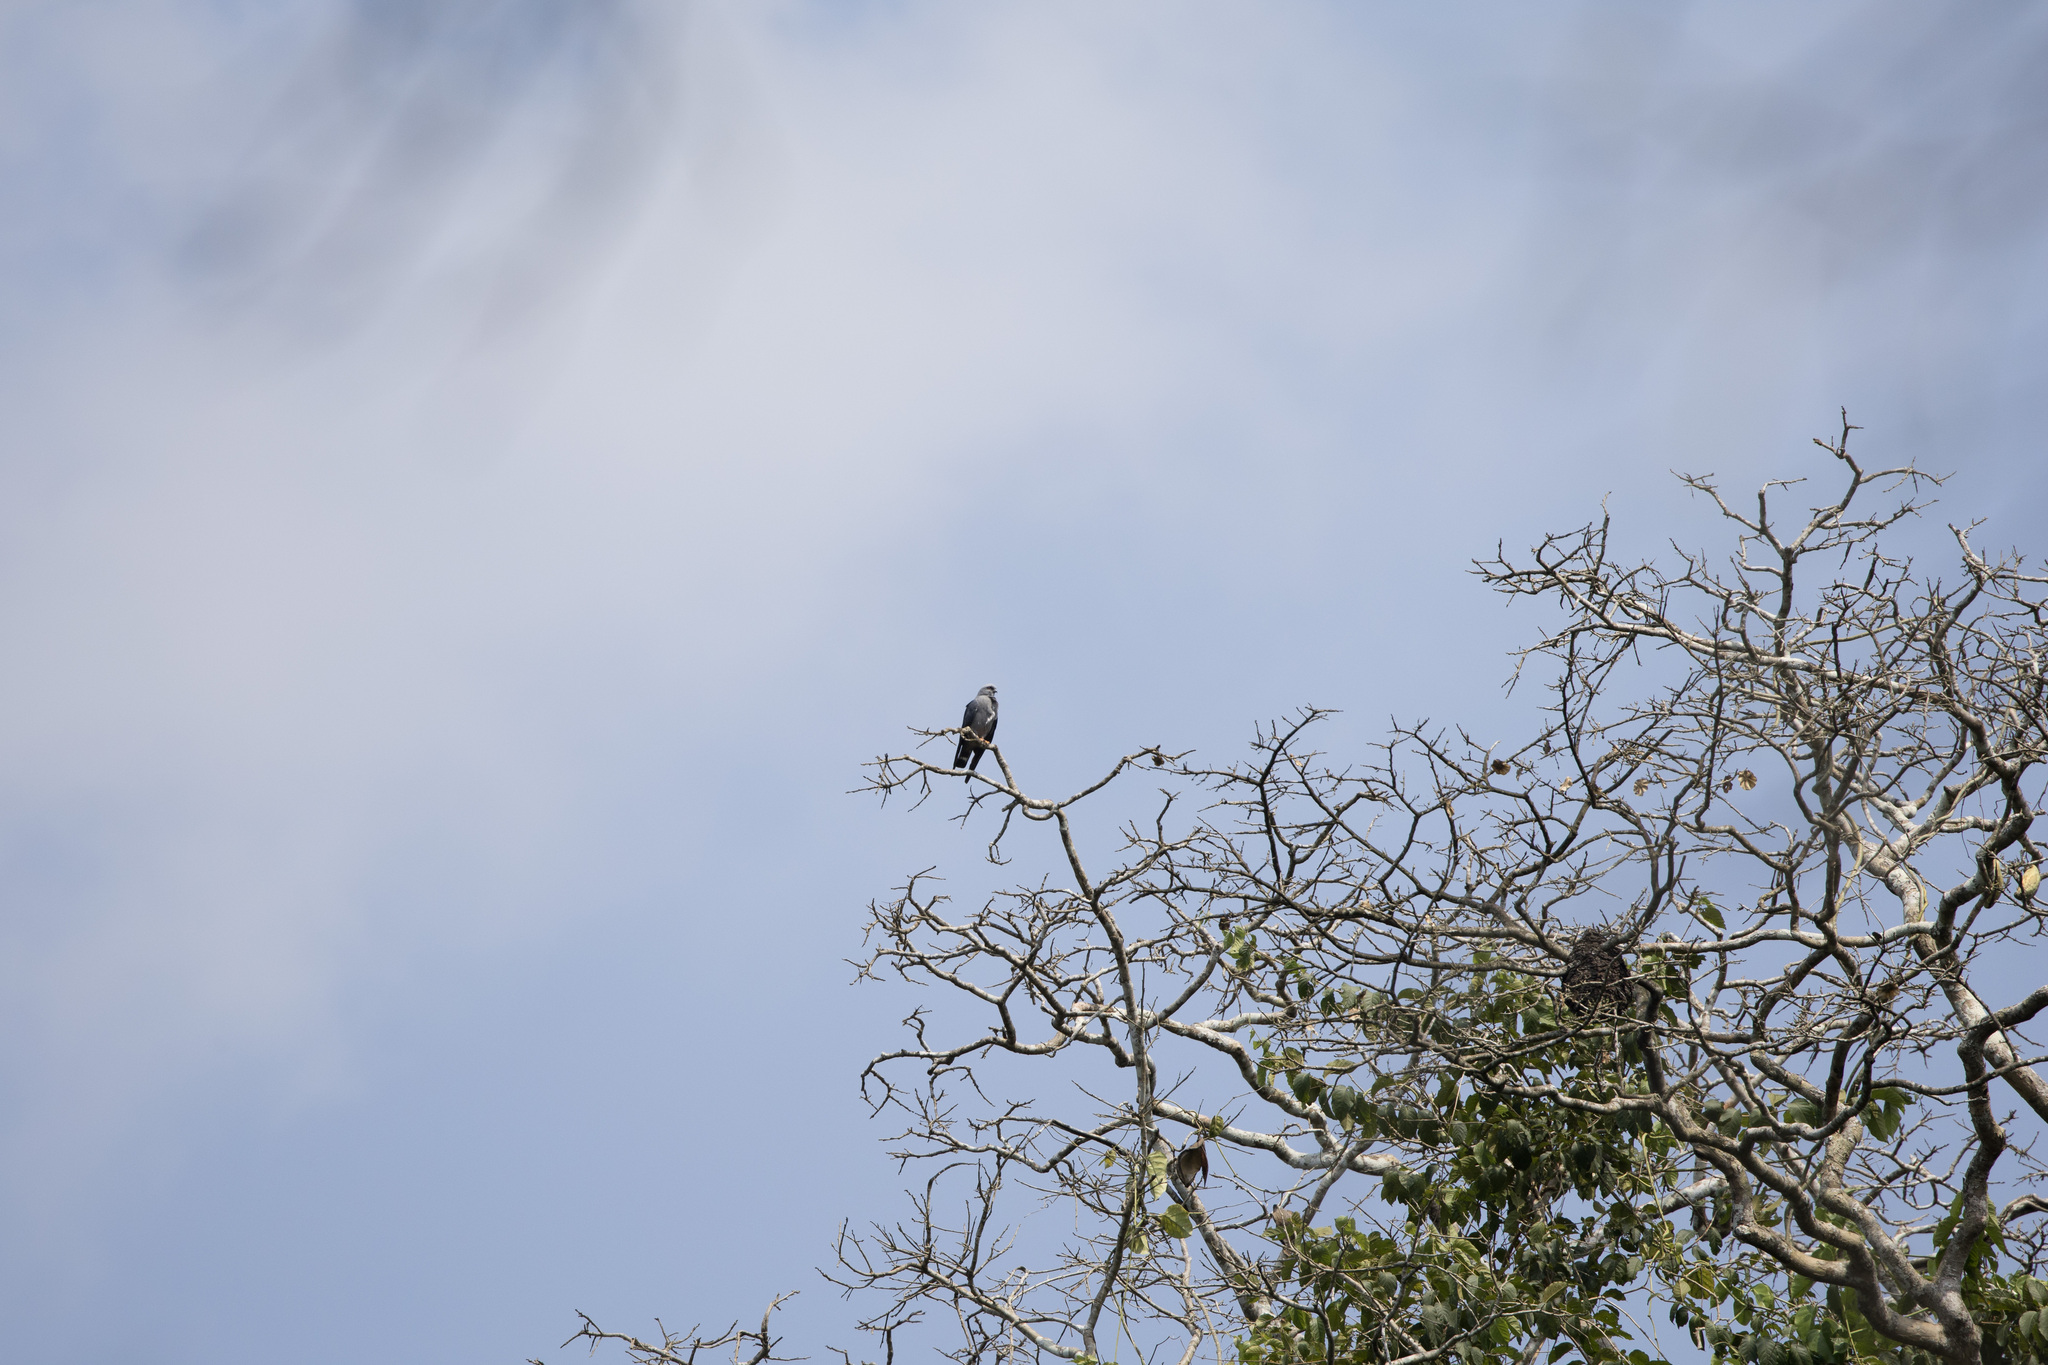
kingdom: Animalia
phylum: Chordata
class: Aves
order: Accipitriformes
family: Accipitridae
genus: Ictinia
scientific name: Ictinia plumbea
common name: Plumbeous kite
